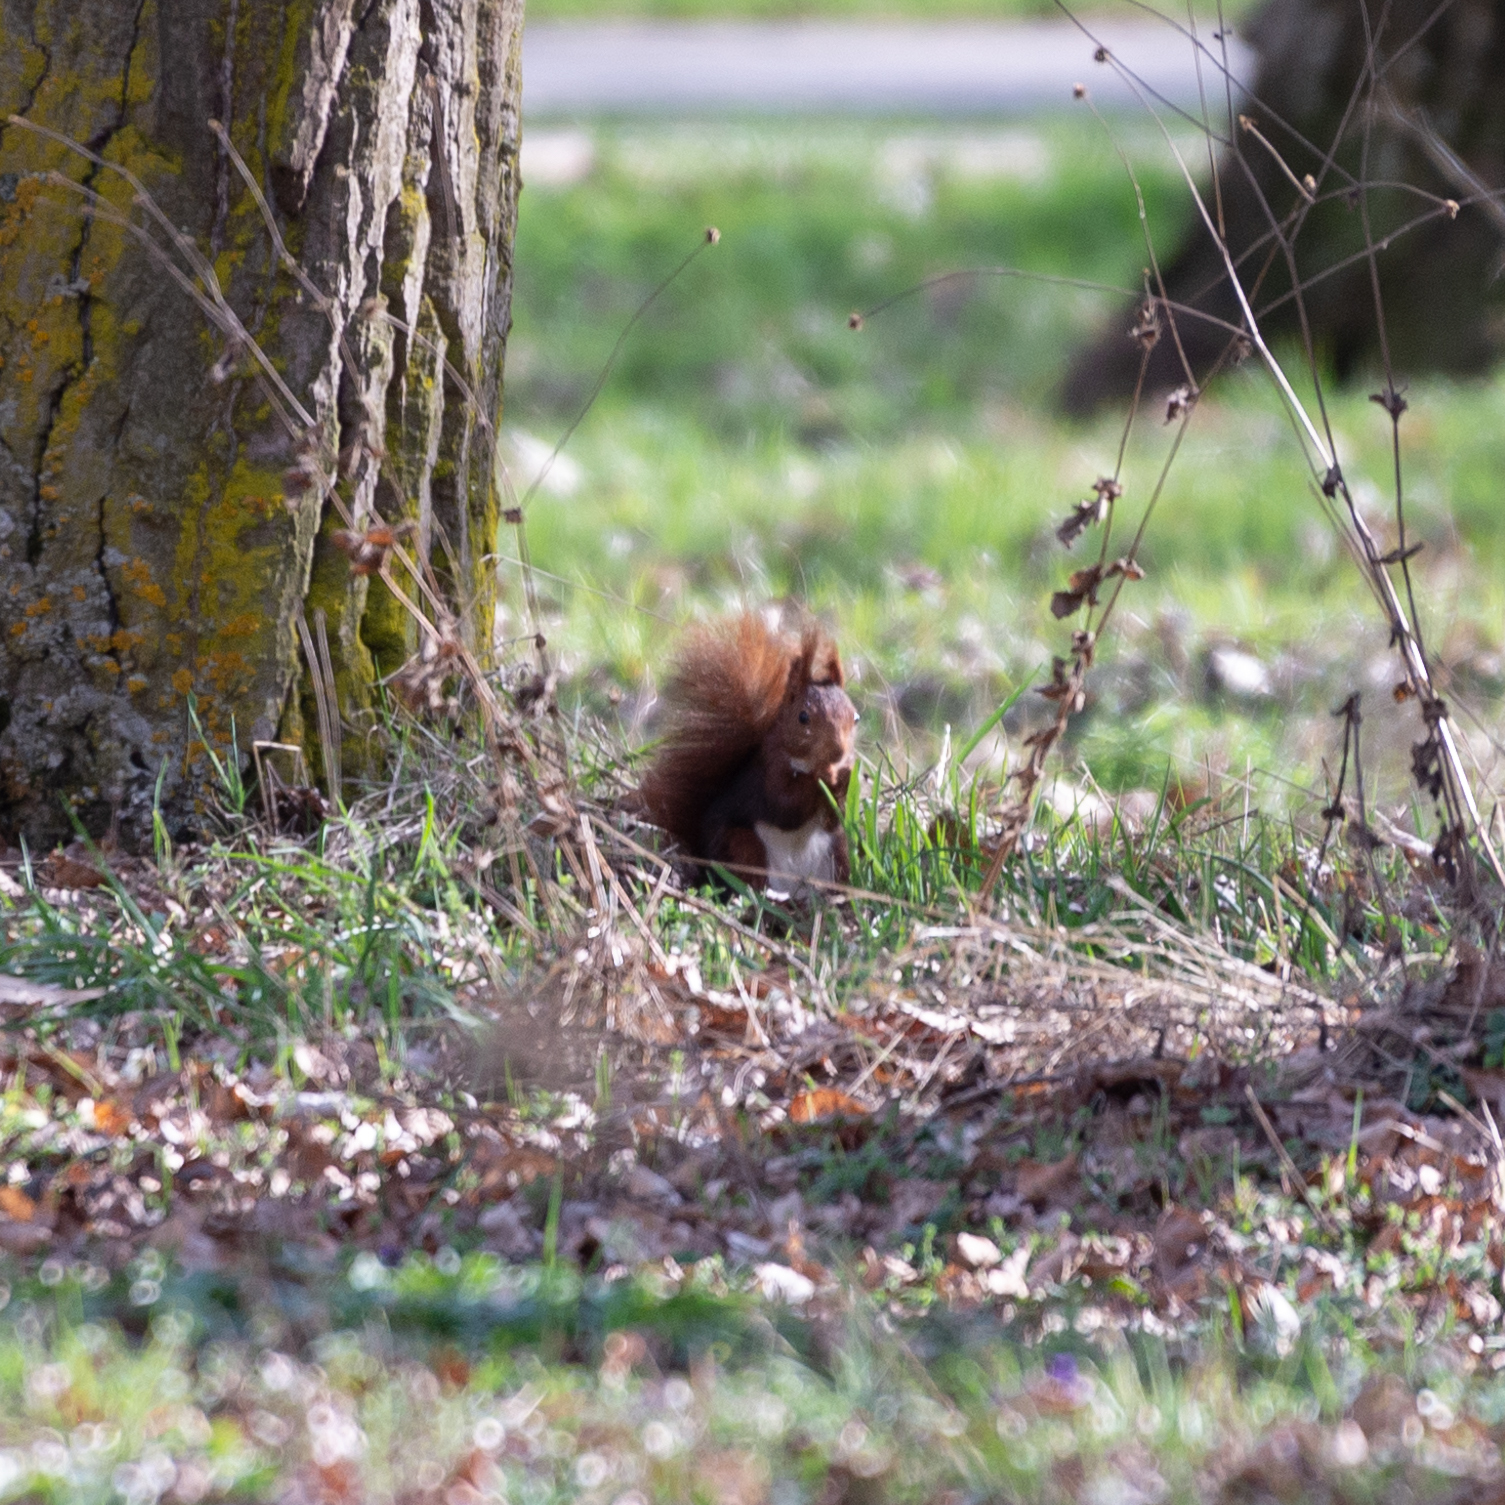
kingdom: Animalia
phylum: Chordata
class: Mammalia
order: Rodentia
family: Sciuridae
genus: Sciurus
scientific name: Sciurus vulgaris
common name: Eurasian red squirrel
